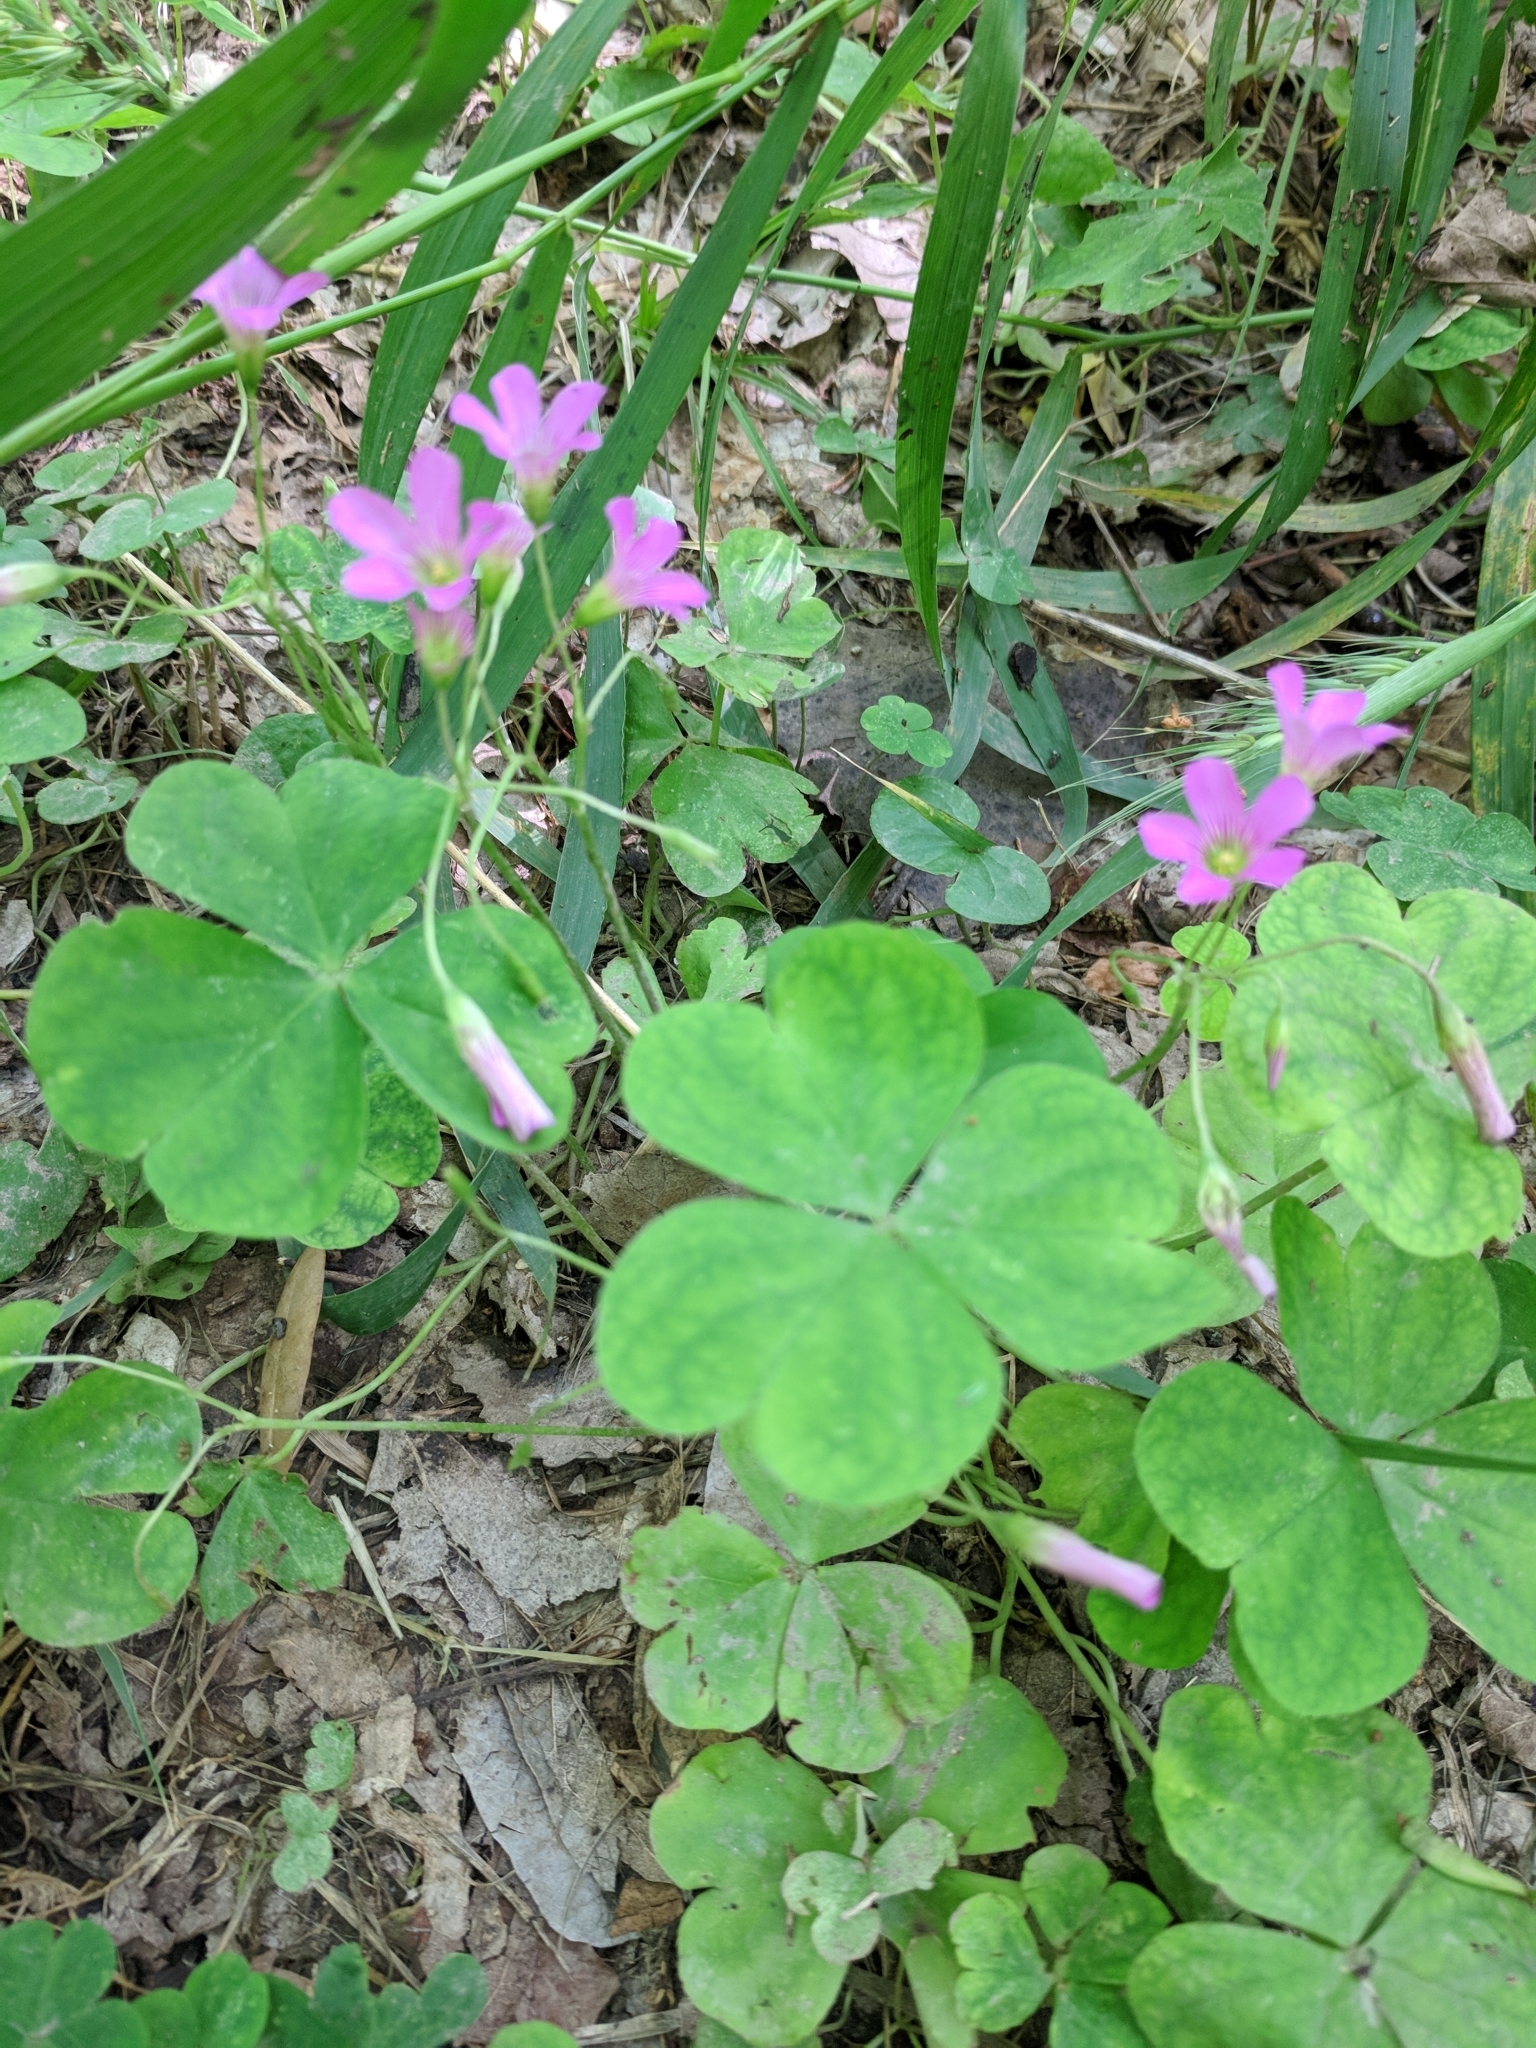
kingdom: Plantae
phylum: Tracheophyta
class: Magnoliopsida
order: Oxalidales
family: Oxalidaceae
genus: Oxalis
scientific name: Oxalis debilis
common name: Large-flowered pink-sorrel
